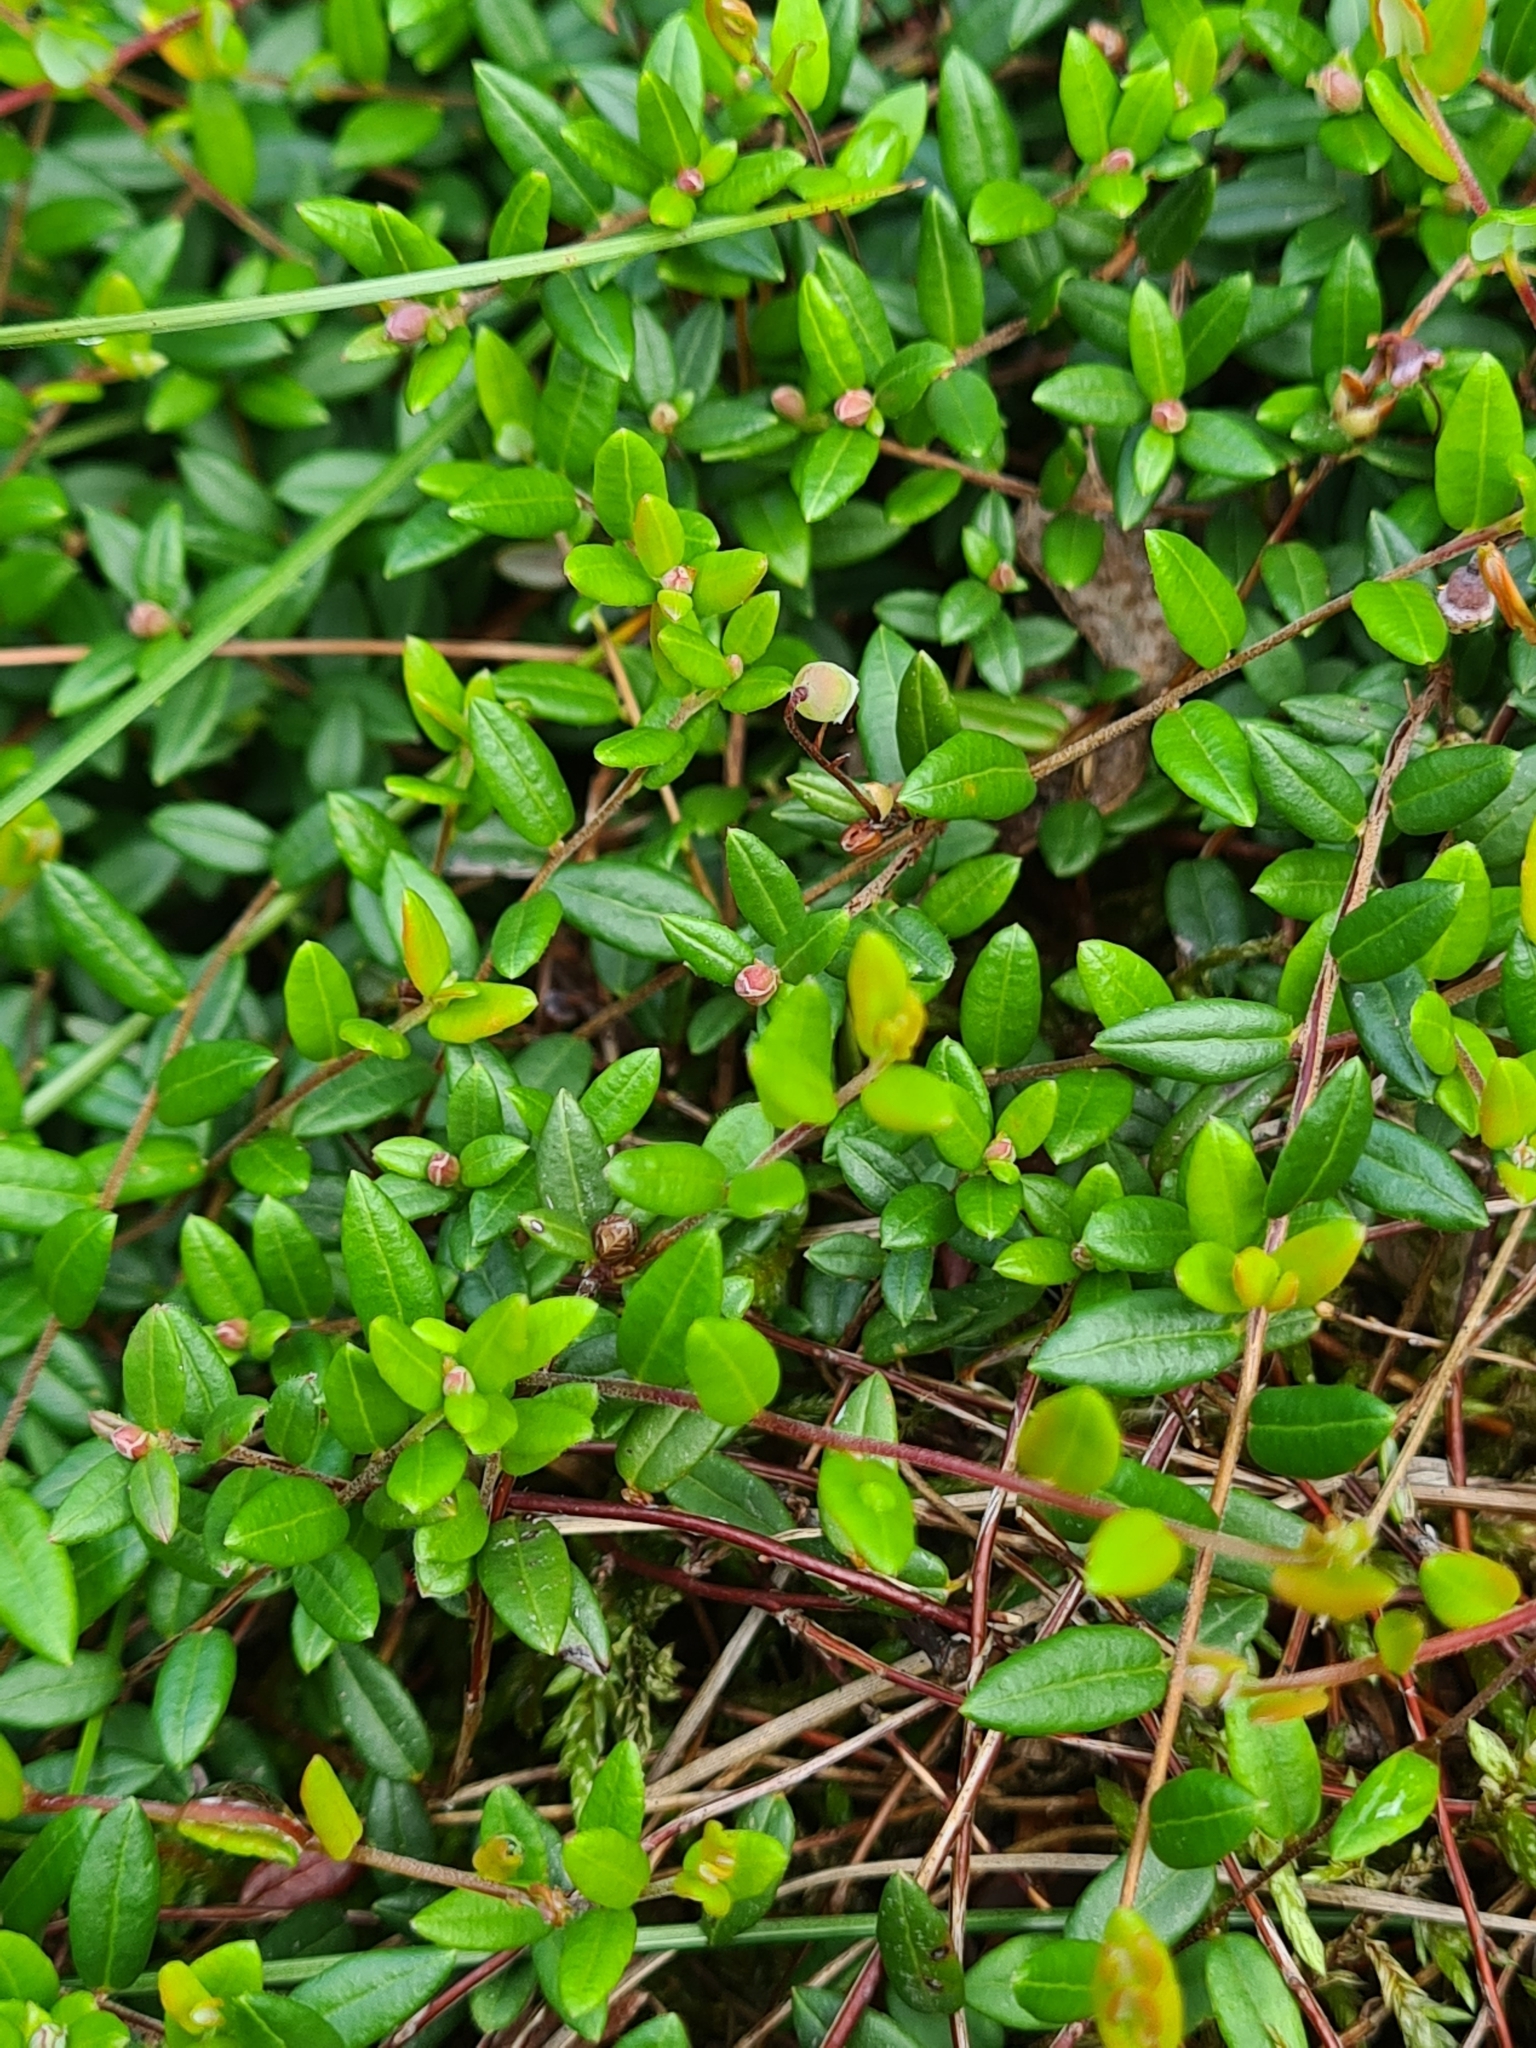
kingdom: Plantae
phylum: Tracheophyta
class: Magnoliopsida
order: Ericales
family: Ericaceae
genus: Vaccinium
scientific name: Vaccinium oxycoccos
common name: Cranberry
